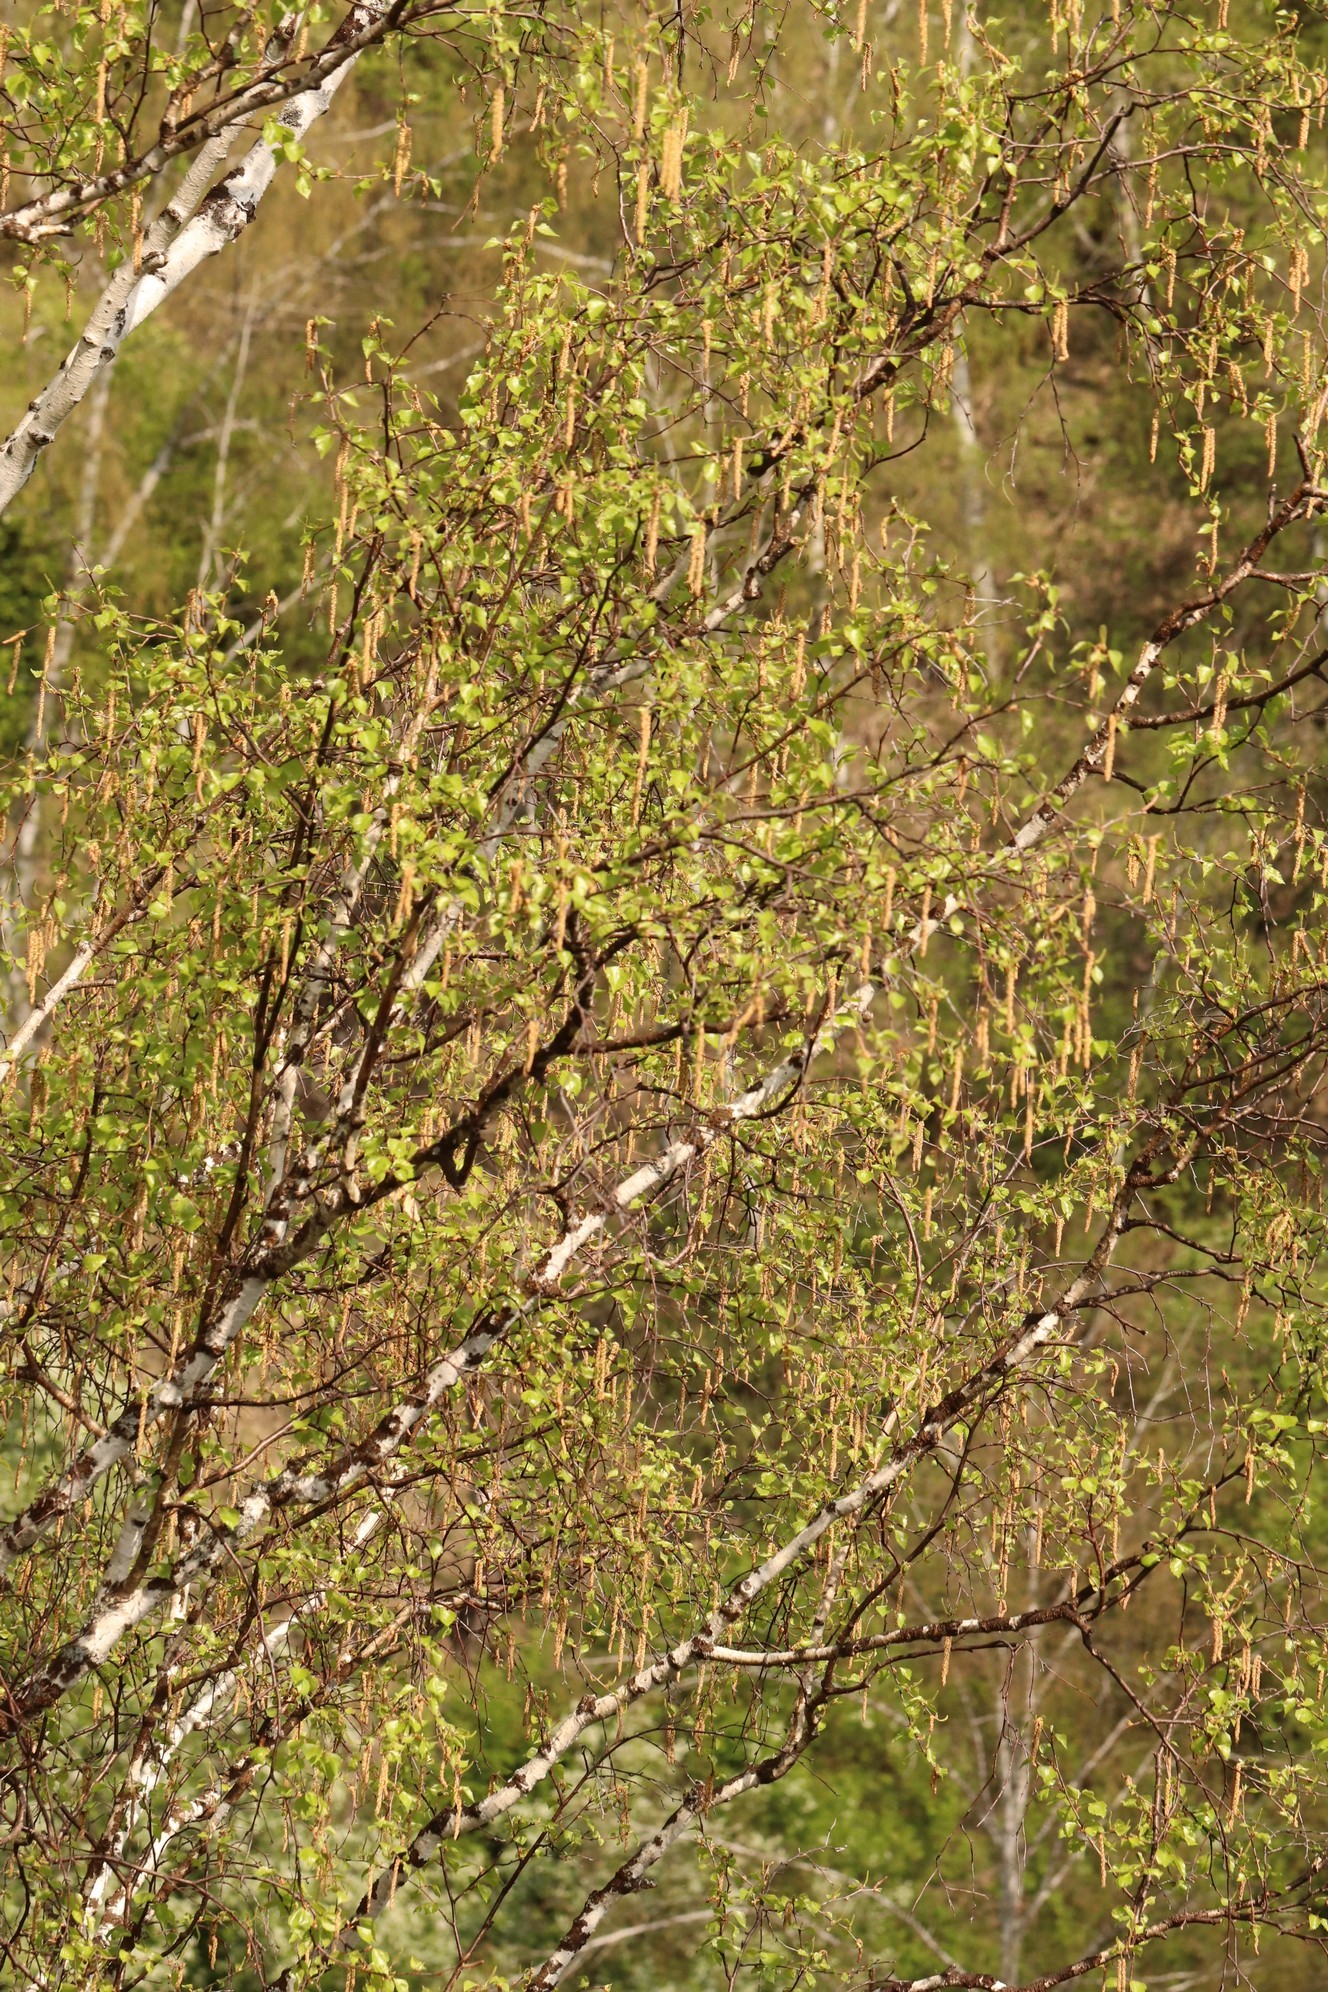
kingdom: Plantae
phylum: Tracheophyta
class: Magnoliopsida
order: Fagales
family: Betulaceae
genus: Betula
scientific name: Betula pendula
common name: Silver birch
